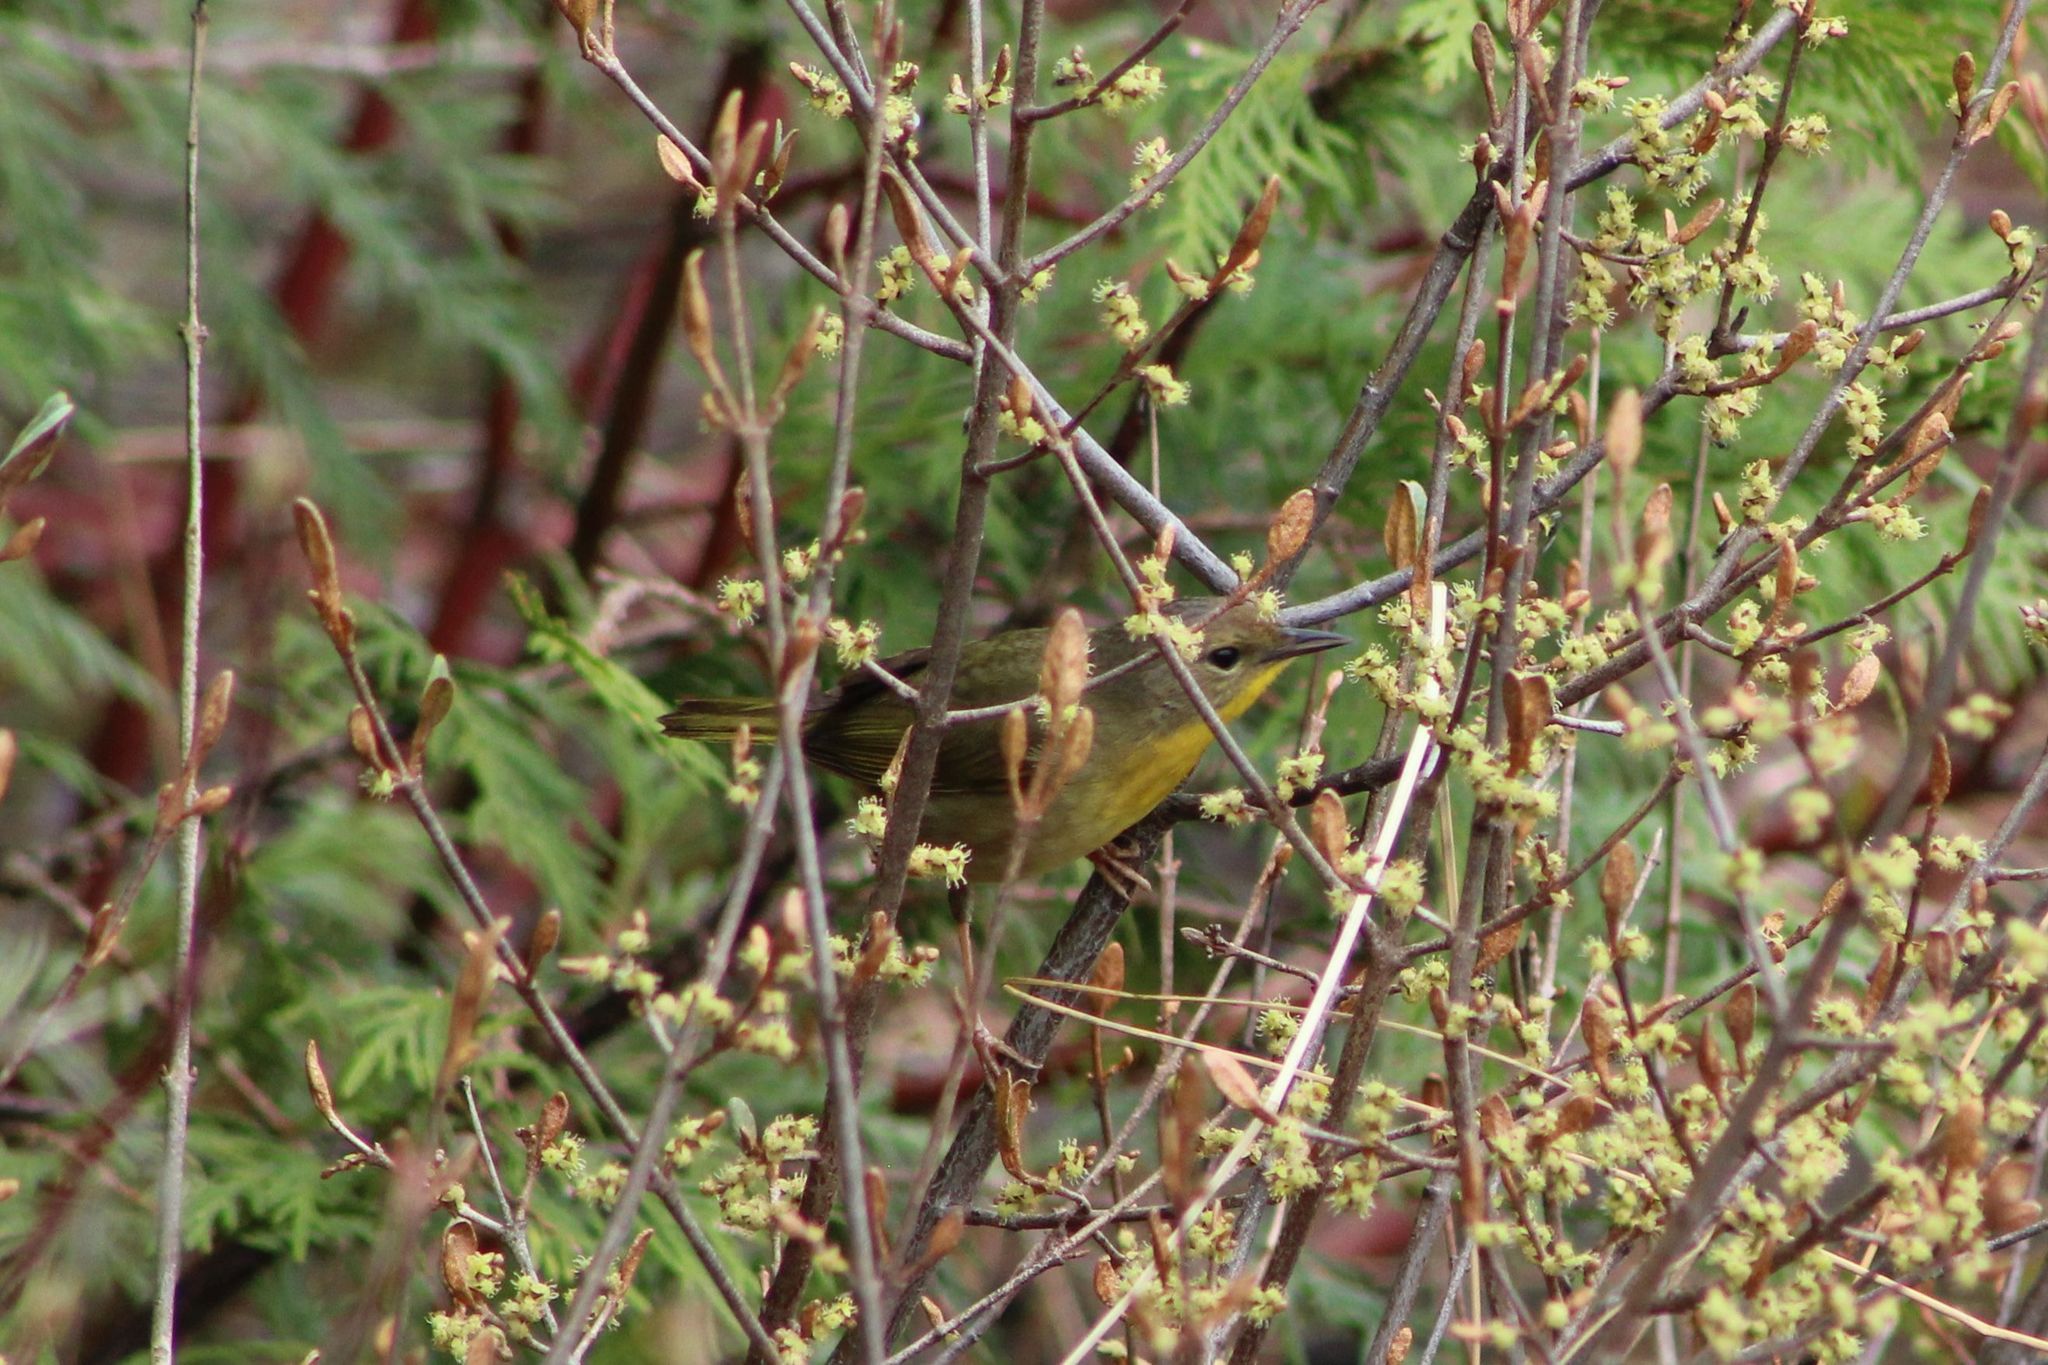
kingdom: Animalia
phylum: Chordata
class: Aves
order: Passeriformes
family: Parulidae
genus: Geothlypis
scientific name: Geothlypis trichas
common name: Common yellowthroat
